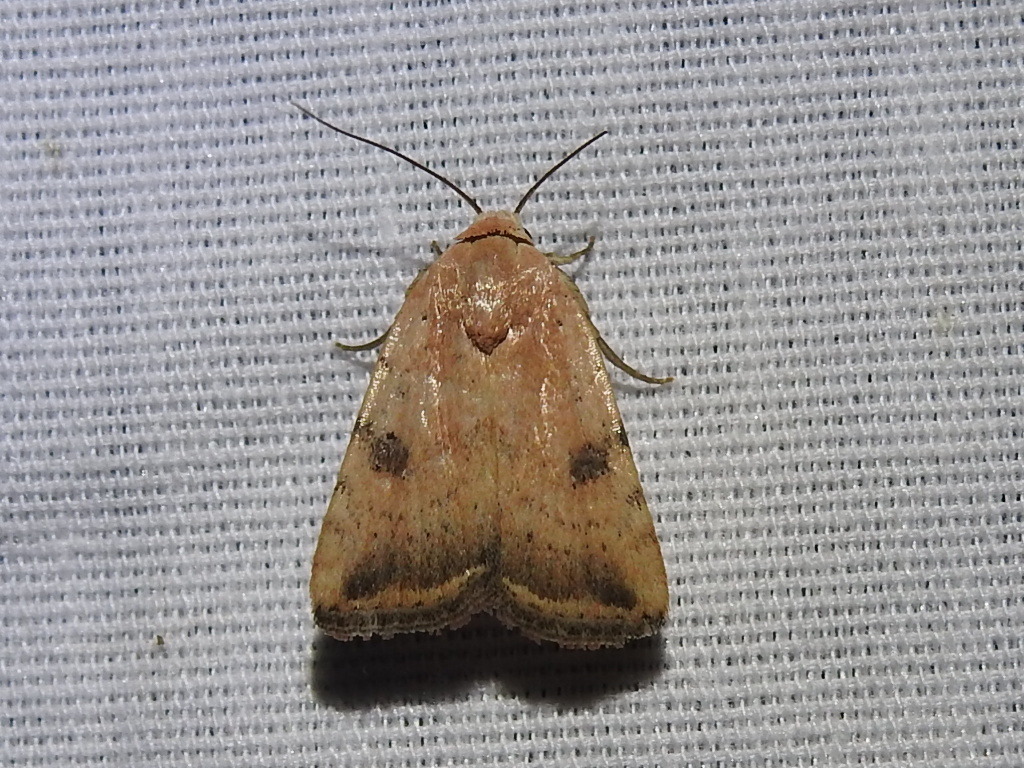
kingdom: Animalia
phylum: Arthropoda
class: Insecta
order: Lepidoptera
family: Noctuidae
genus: Micrathetis
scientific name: Micrathetis triplex
